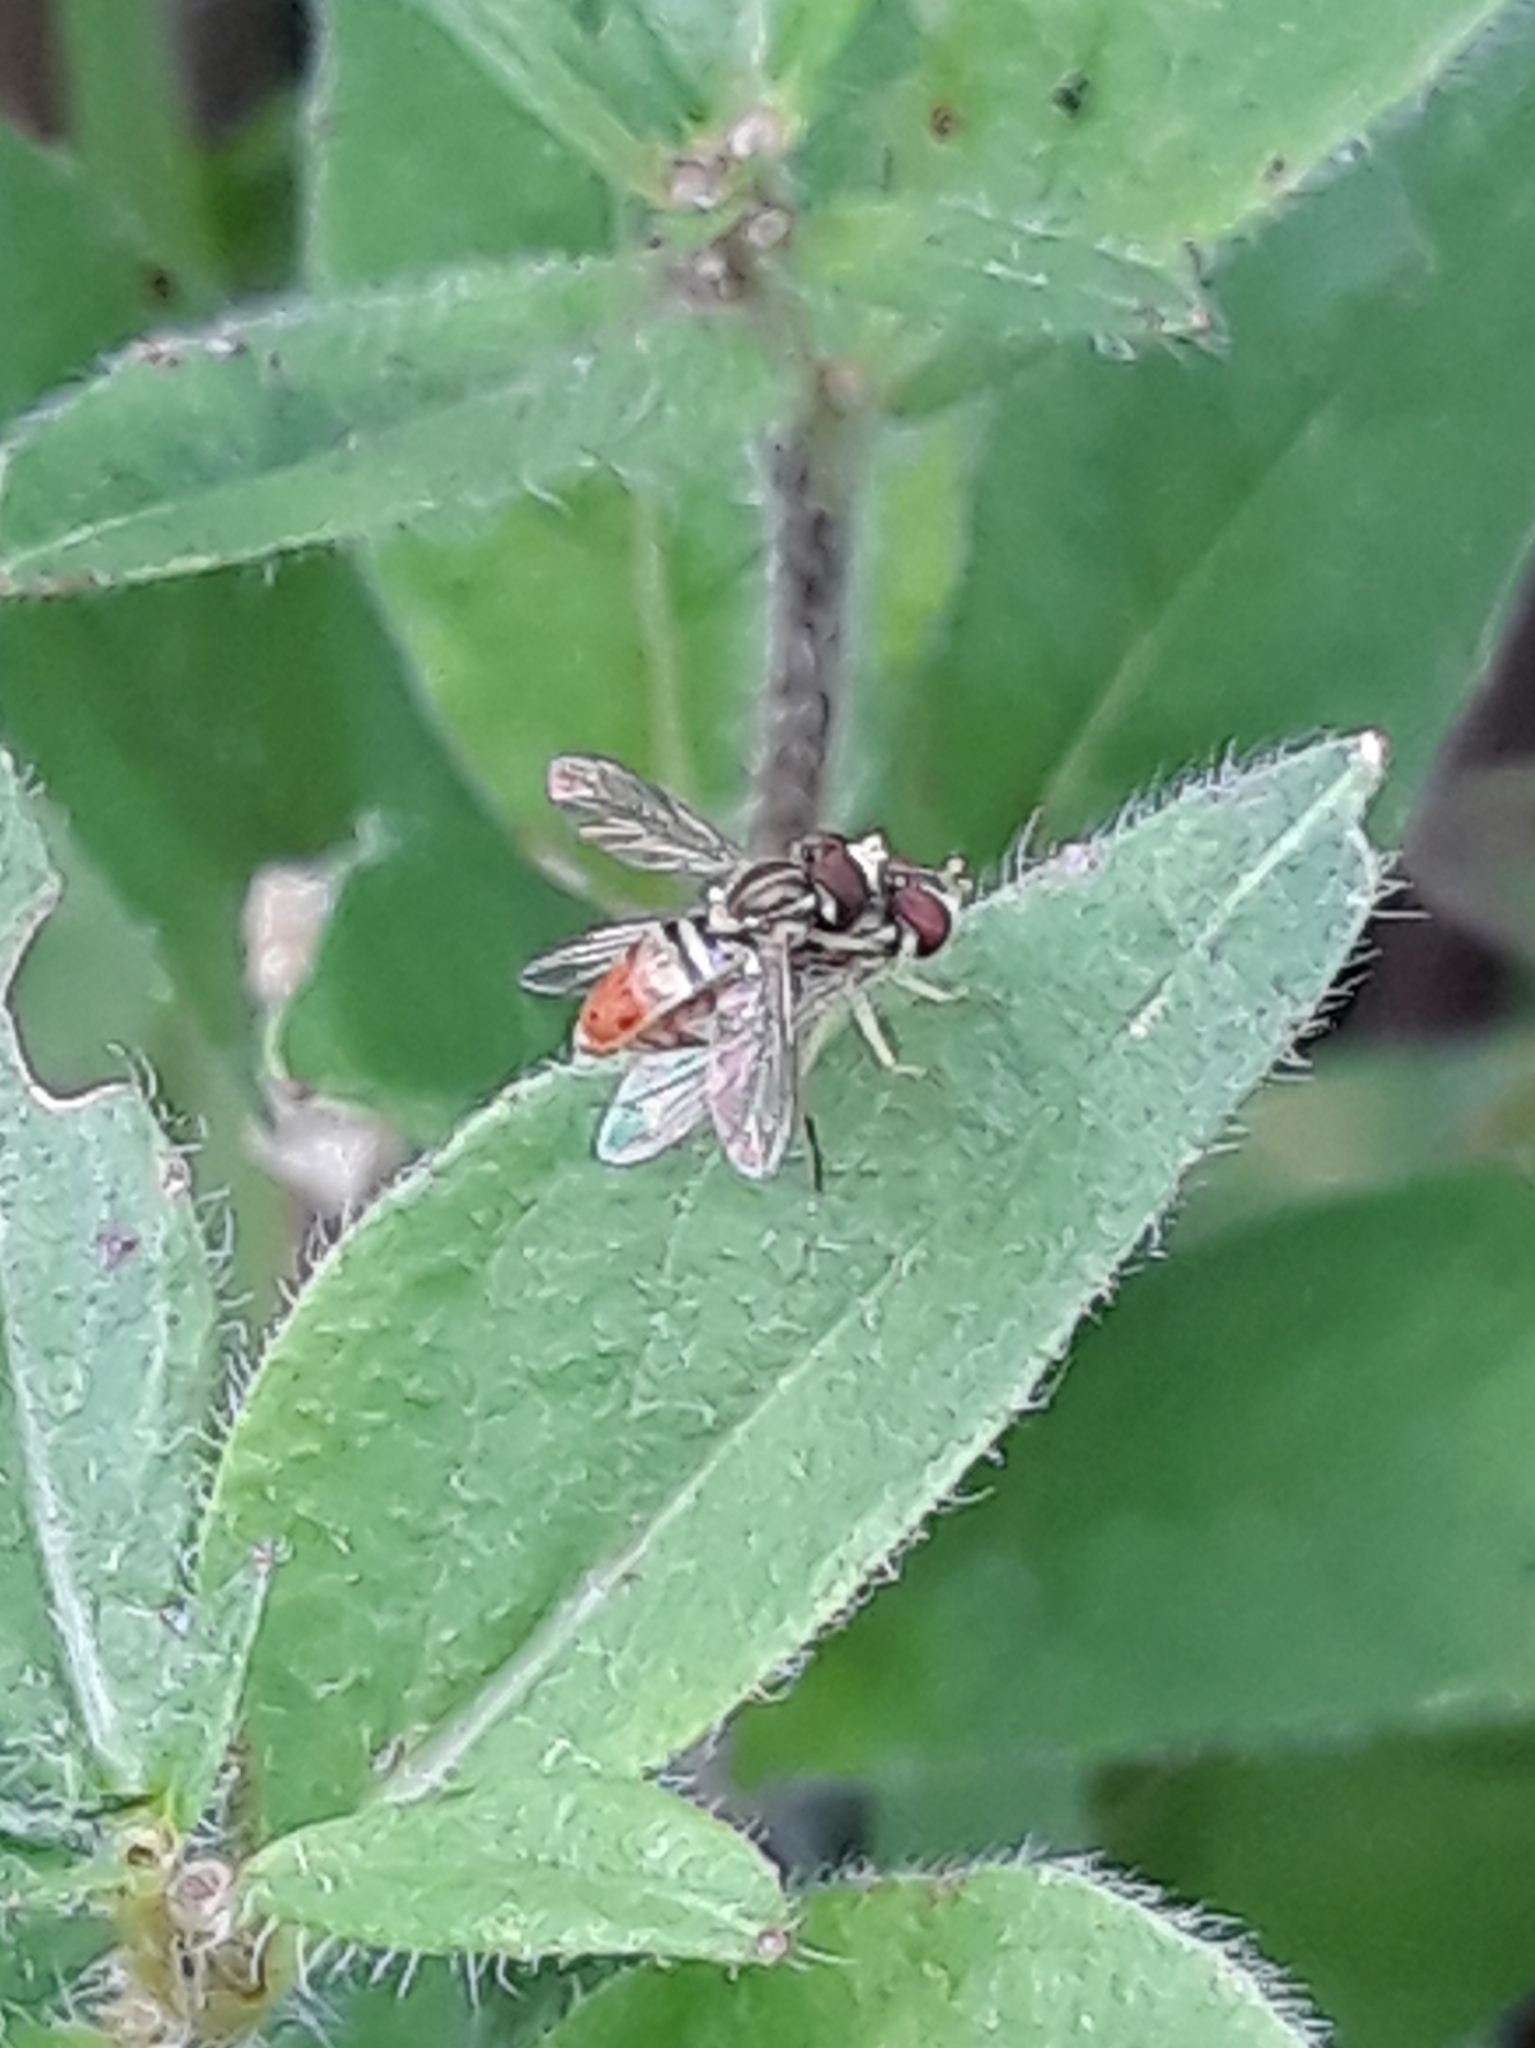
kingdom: Animalia
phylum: Arthropoda
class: Insecta
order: Diptera
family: Syrphidae
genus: Toxomerus
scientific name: Toxomerus marginatus
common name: Syrphid fly
